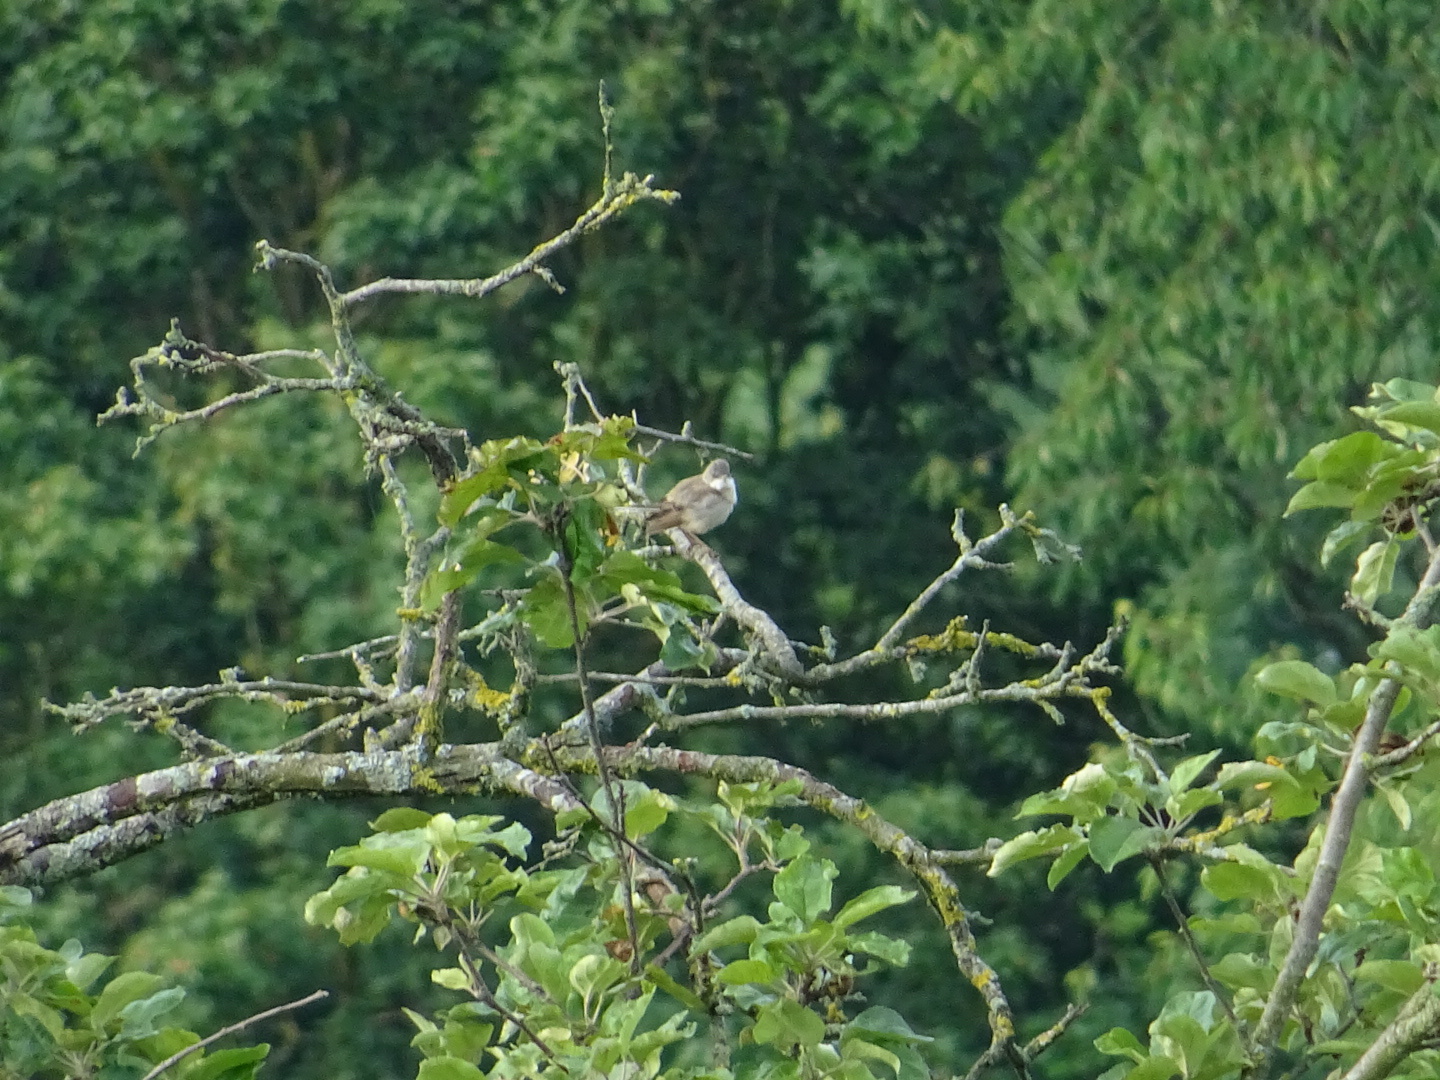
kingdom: Animalia
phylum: Chordata
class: Aves
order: Passeriformes
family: Sylviidae
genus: Sylvia
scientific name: Sylvia communis
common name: Common whitethroat
